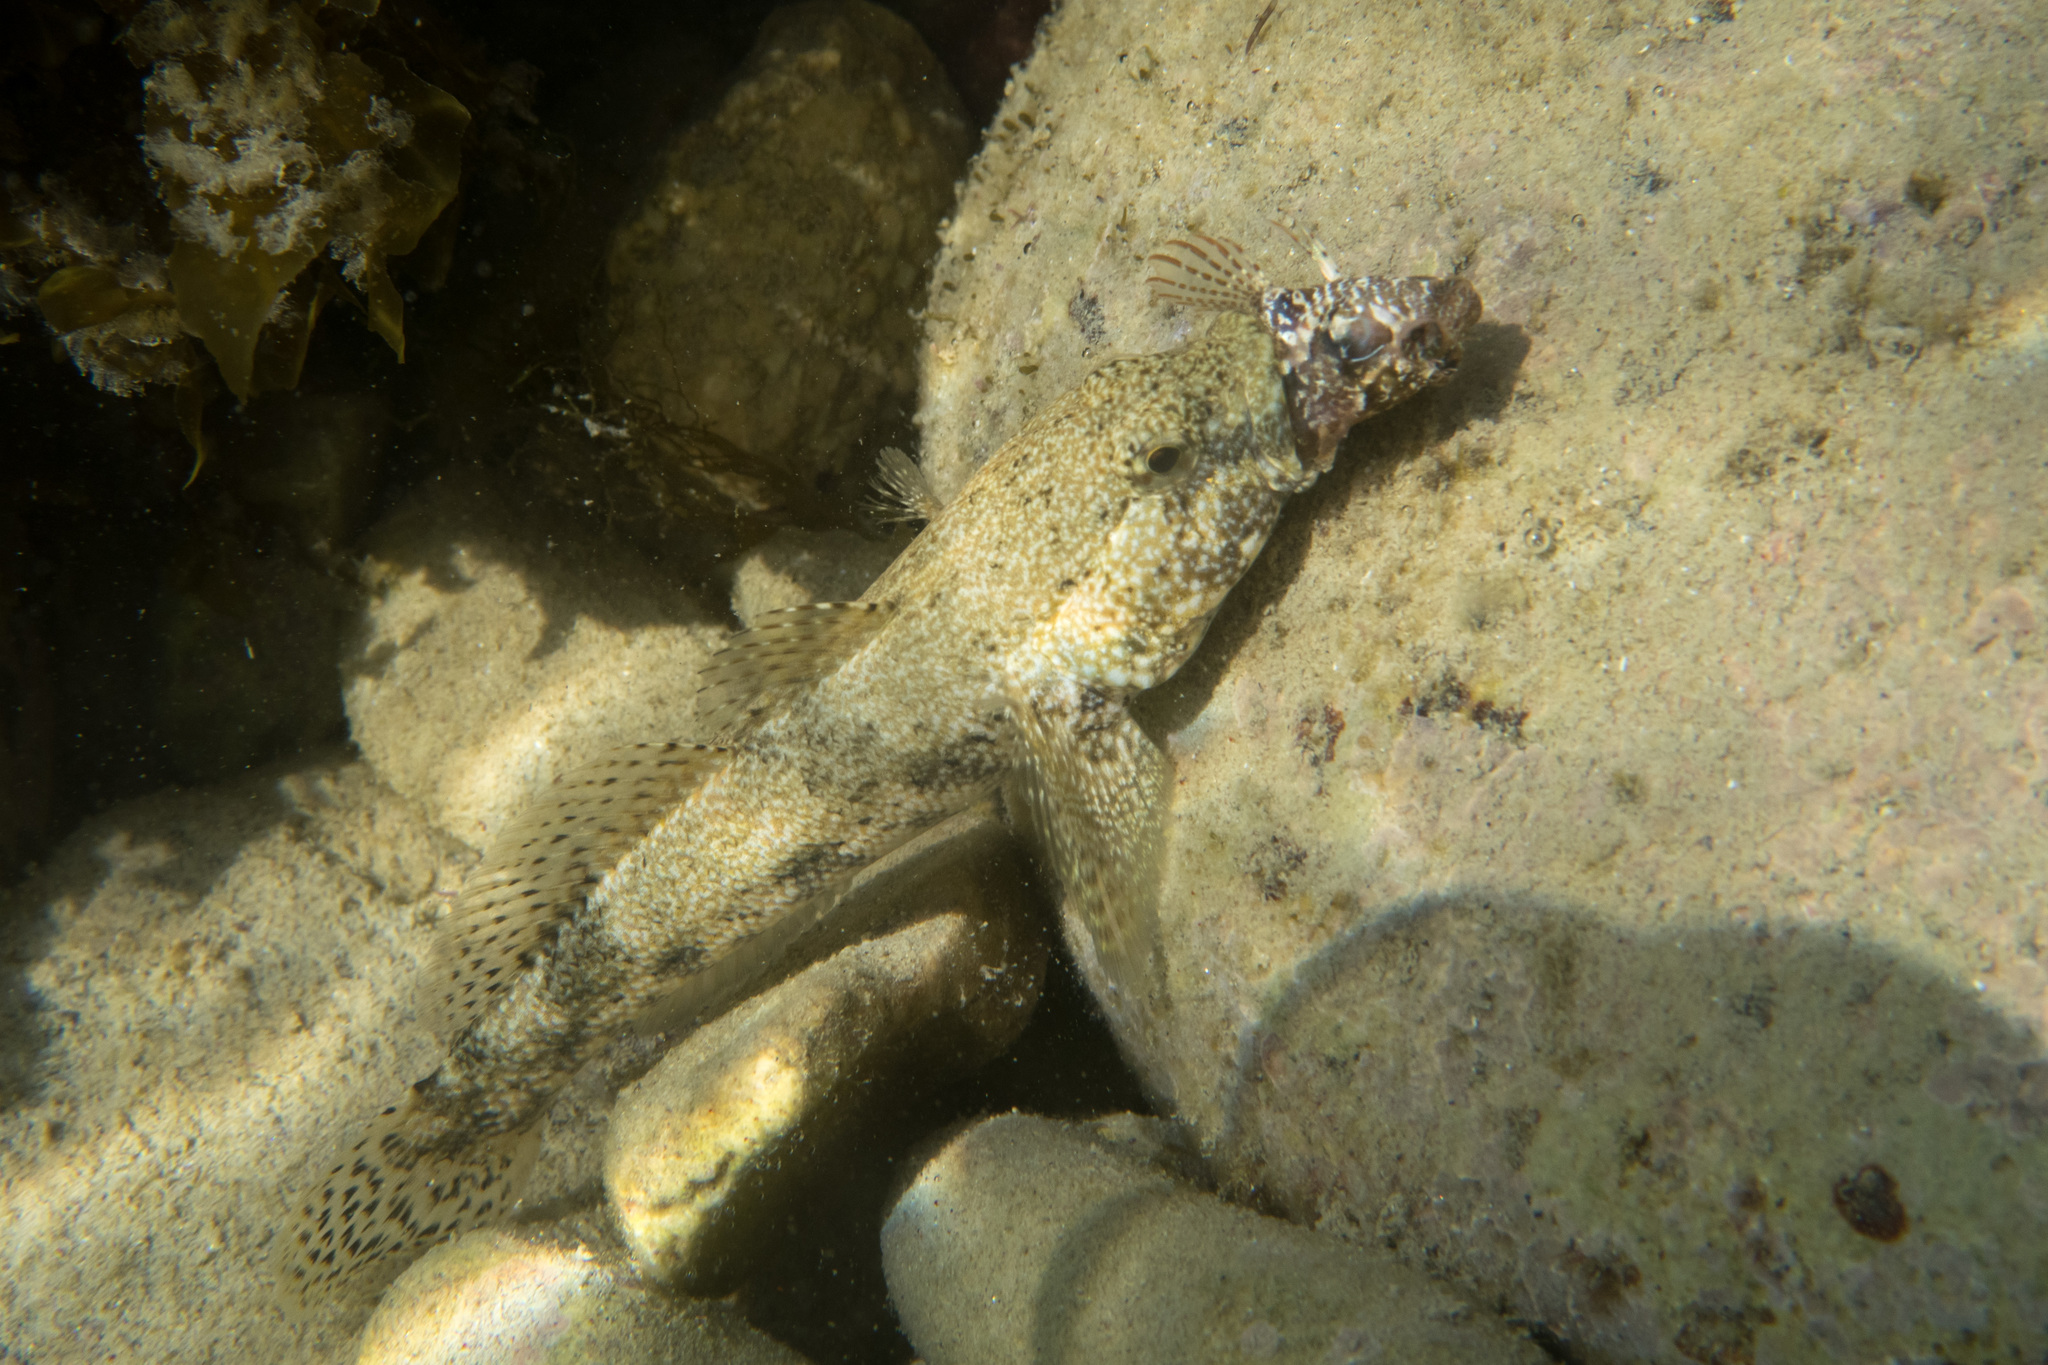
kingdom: Animalia
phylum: Chordata
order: Perciformes
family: Gobiidae
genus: Gobius
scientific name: Gobius cobitis
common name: Giant goby
